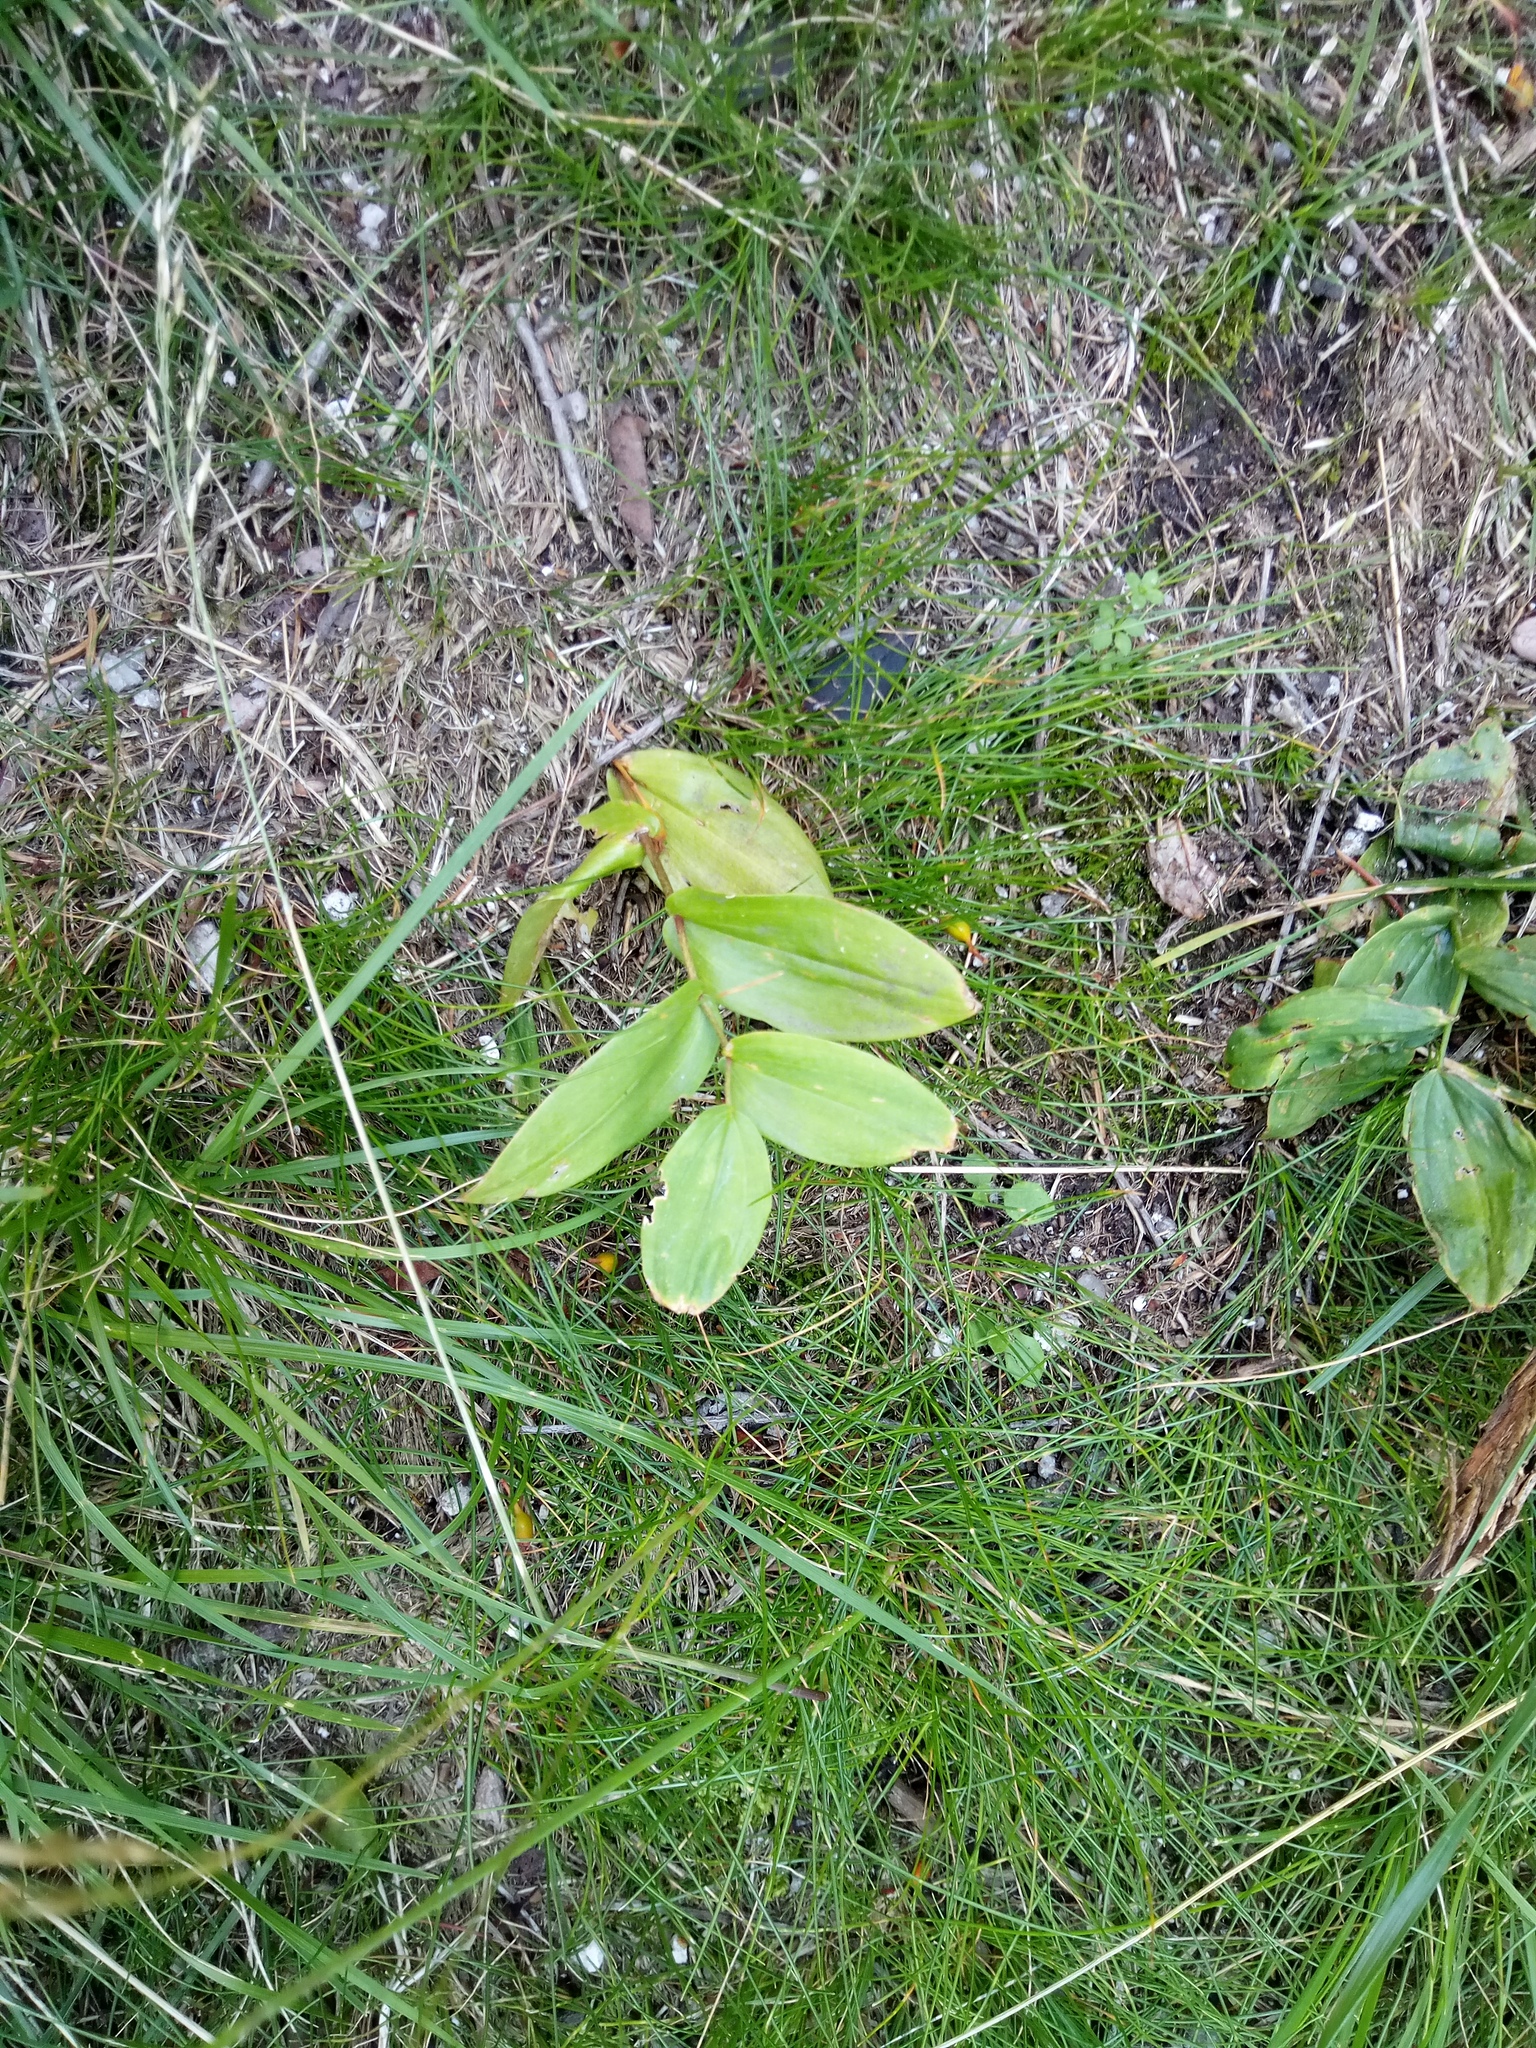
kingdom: Plantae
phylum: Tracheophyta
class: Liliopsida
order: Liliales
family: Liliaceae
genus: Streptopus
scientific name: Streptopus amplexifolius
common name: Clasp twisted stalk
